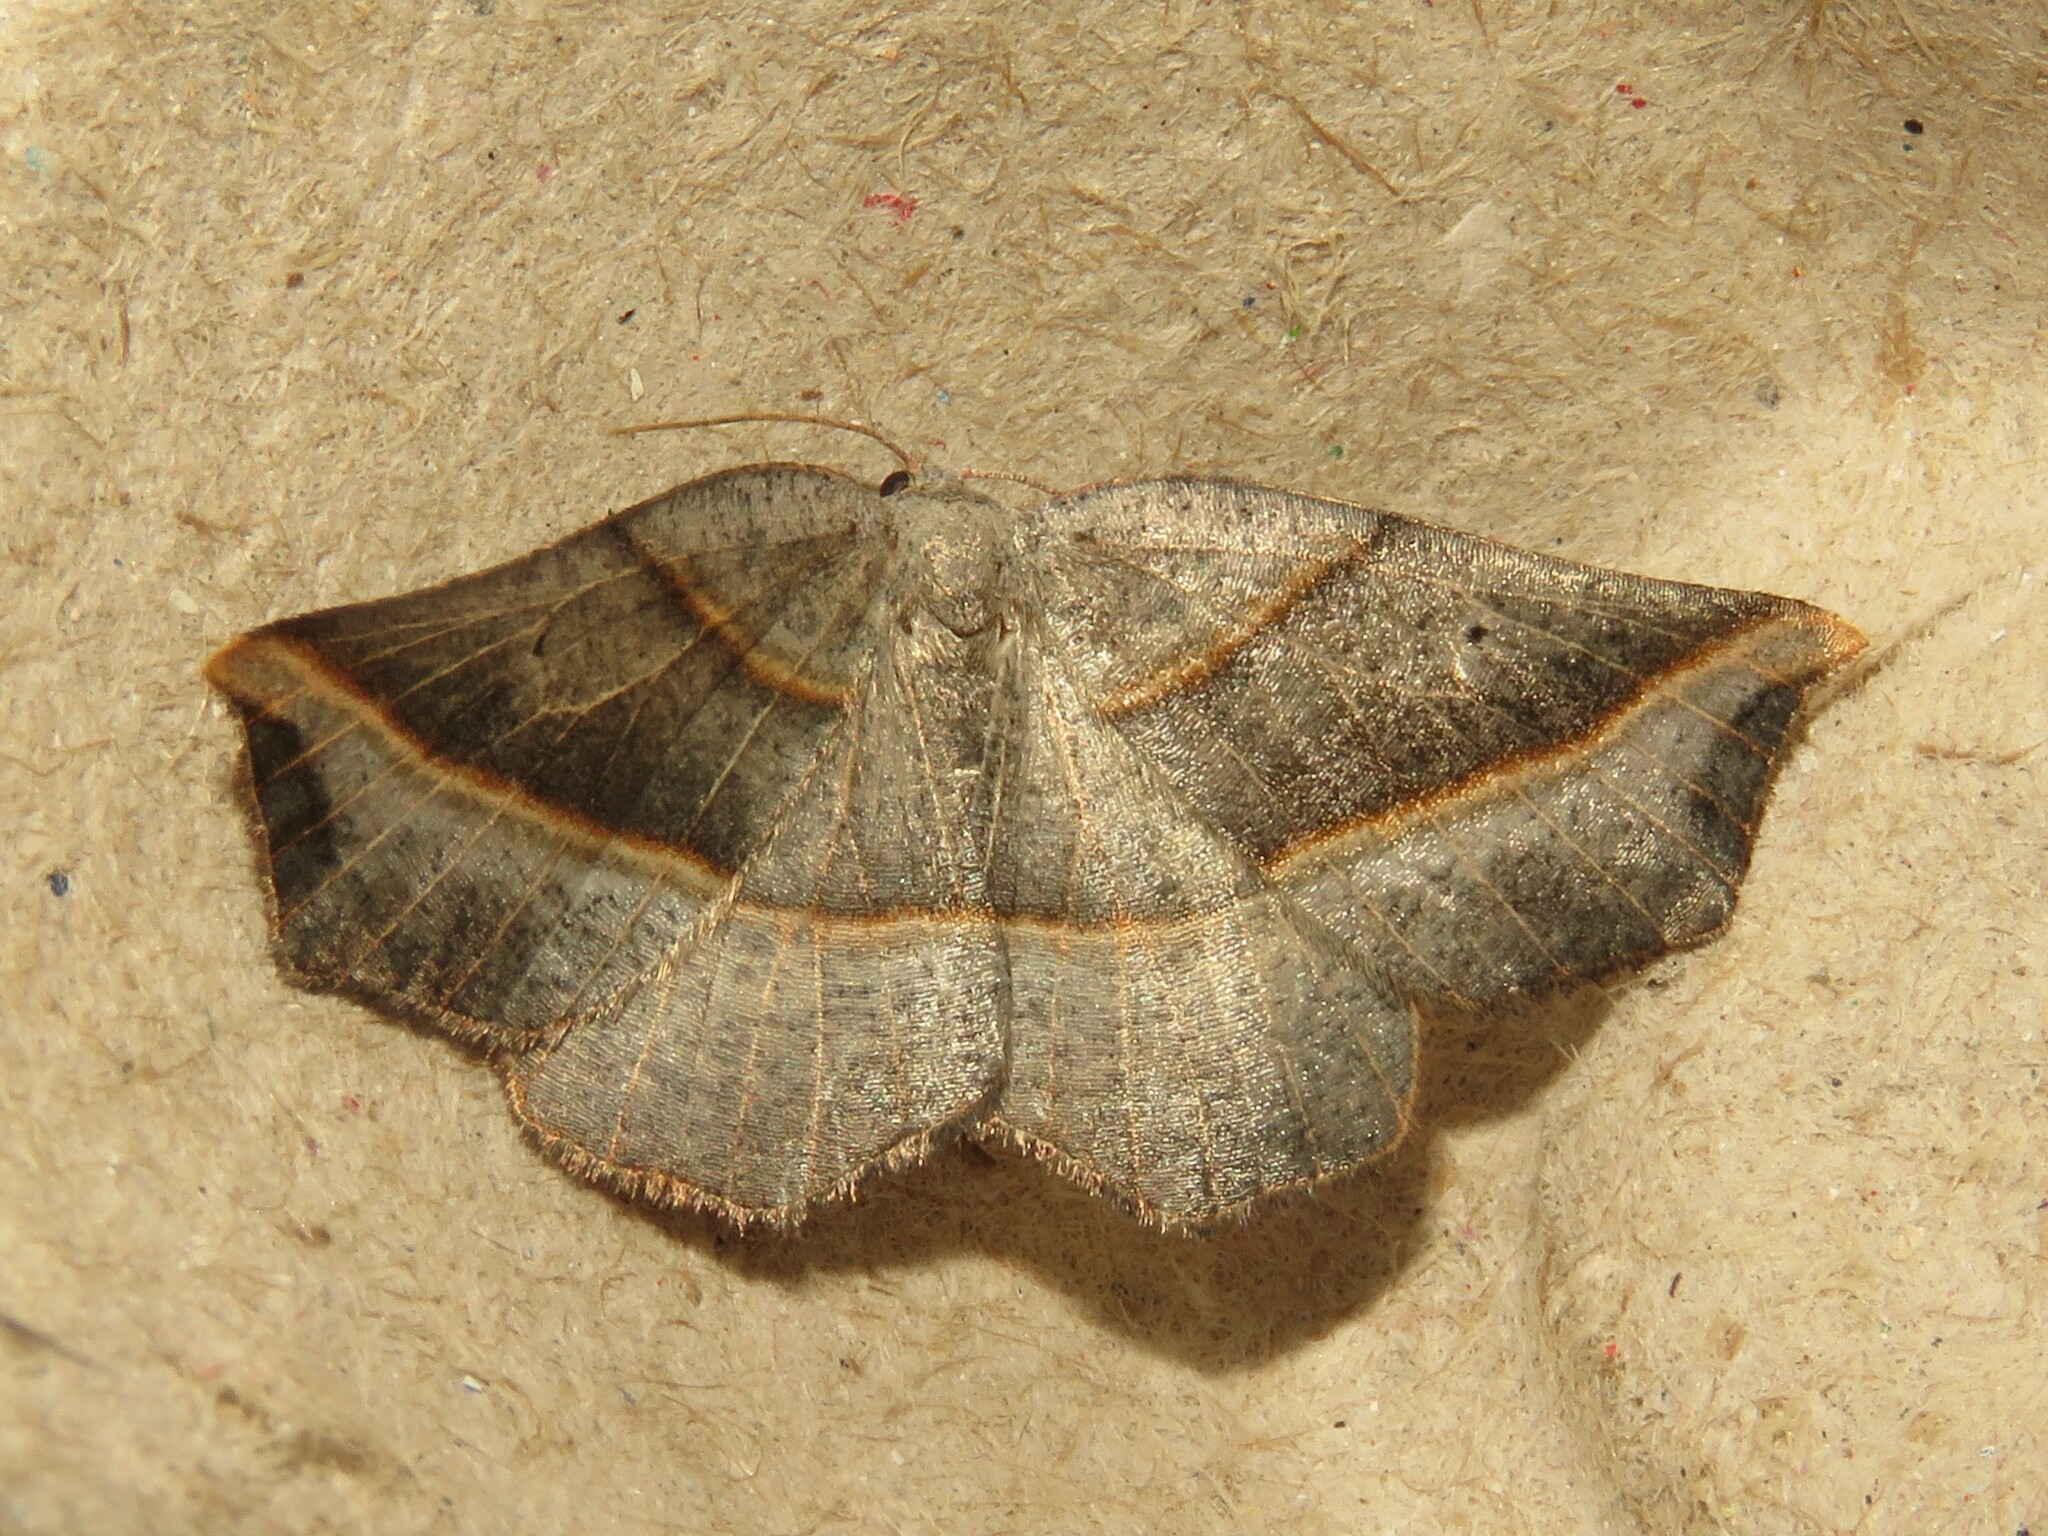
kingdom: Animalia
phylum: Arthropoda
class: Insecta
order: Lepidoptera
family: Geometridae
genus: Metanema
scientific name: Metanema determinata
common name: Dark metanema
